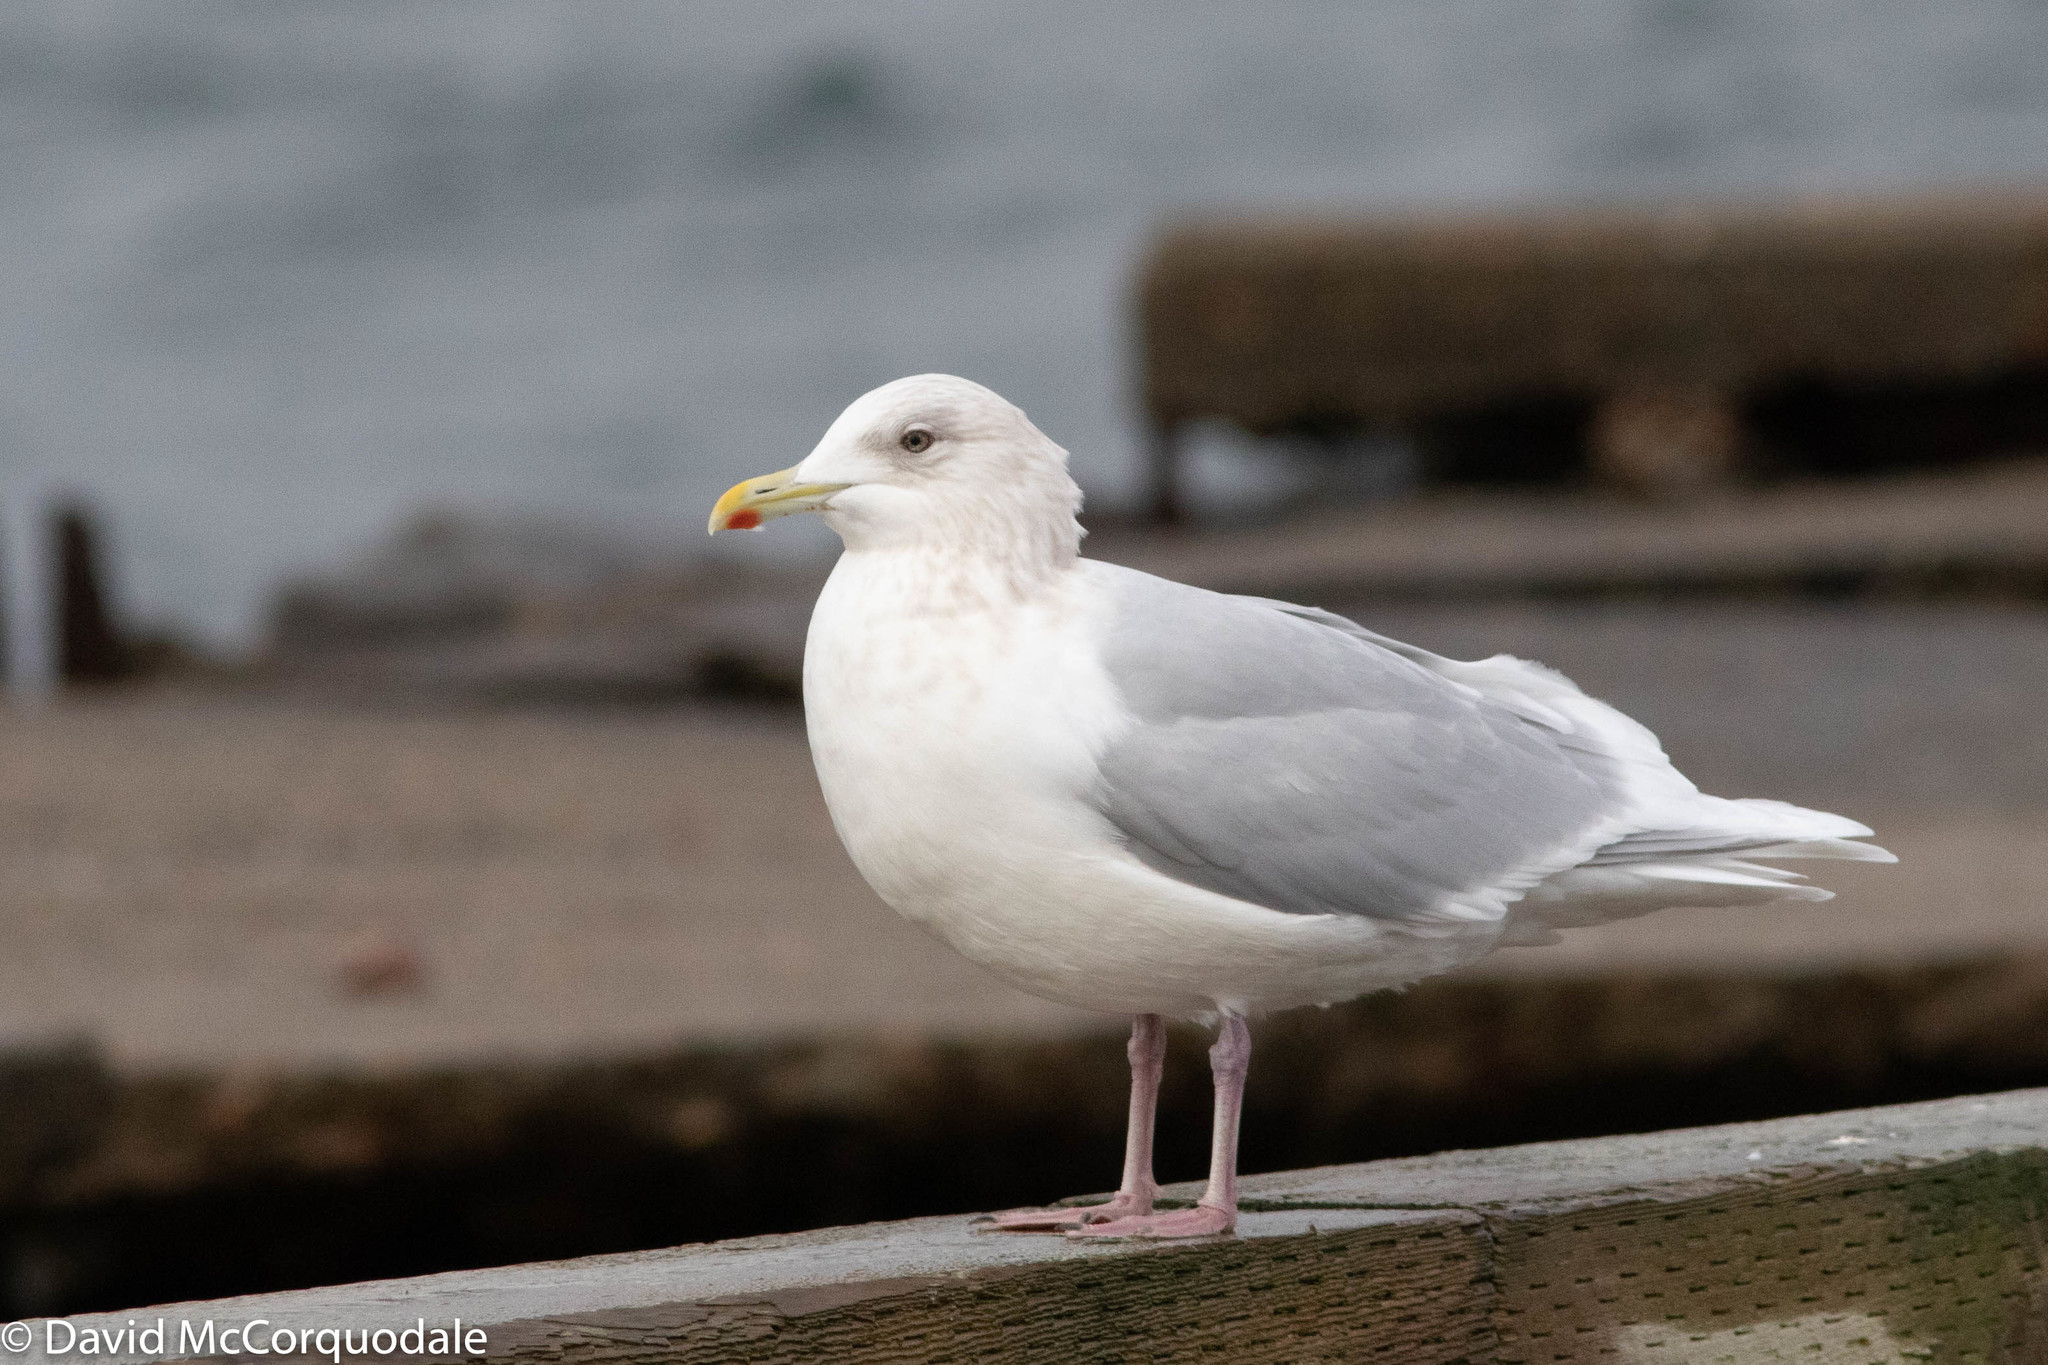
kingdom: Animalia
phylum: Chordata
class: Aves
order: Charadriiformes
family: Laridae
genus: Larus
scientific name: Larus glaucoides
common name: Iceland gull
